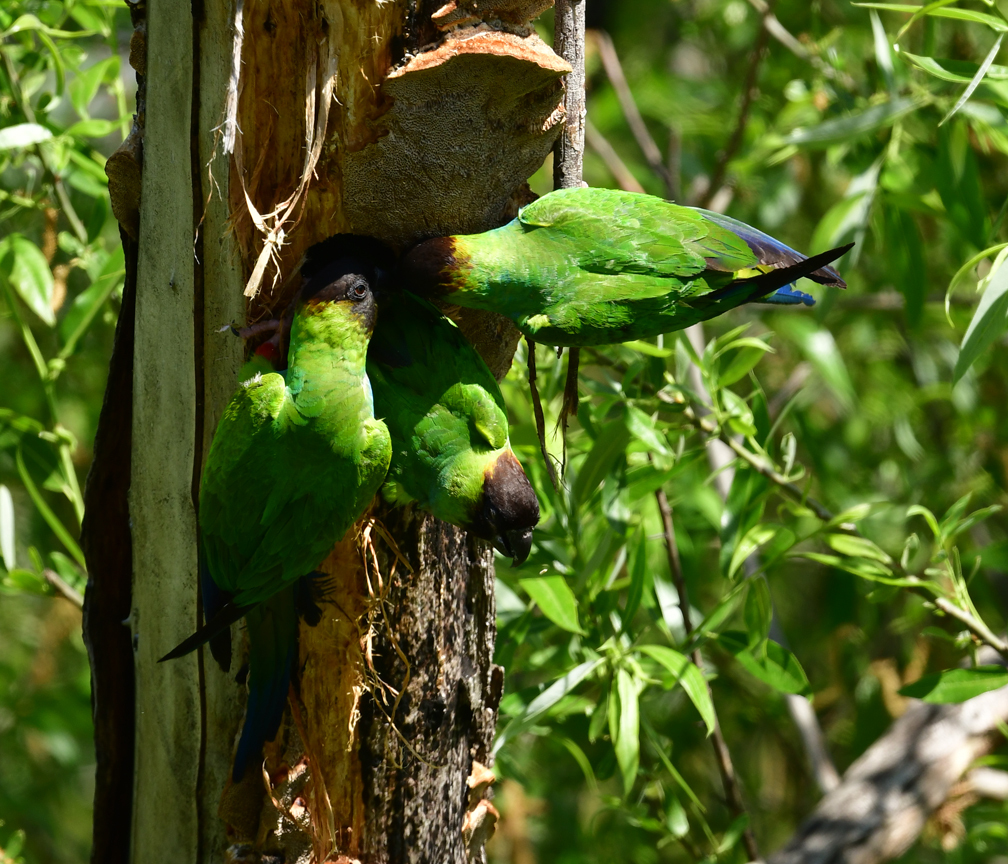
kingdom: Animalia
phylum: Chordata
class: Aves
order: Psittaciformes
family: Psittacidae
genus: Nandayus
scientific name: Nandayus nenday
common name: Nanday parakeet
